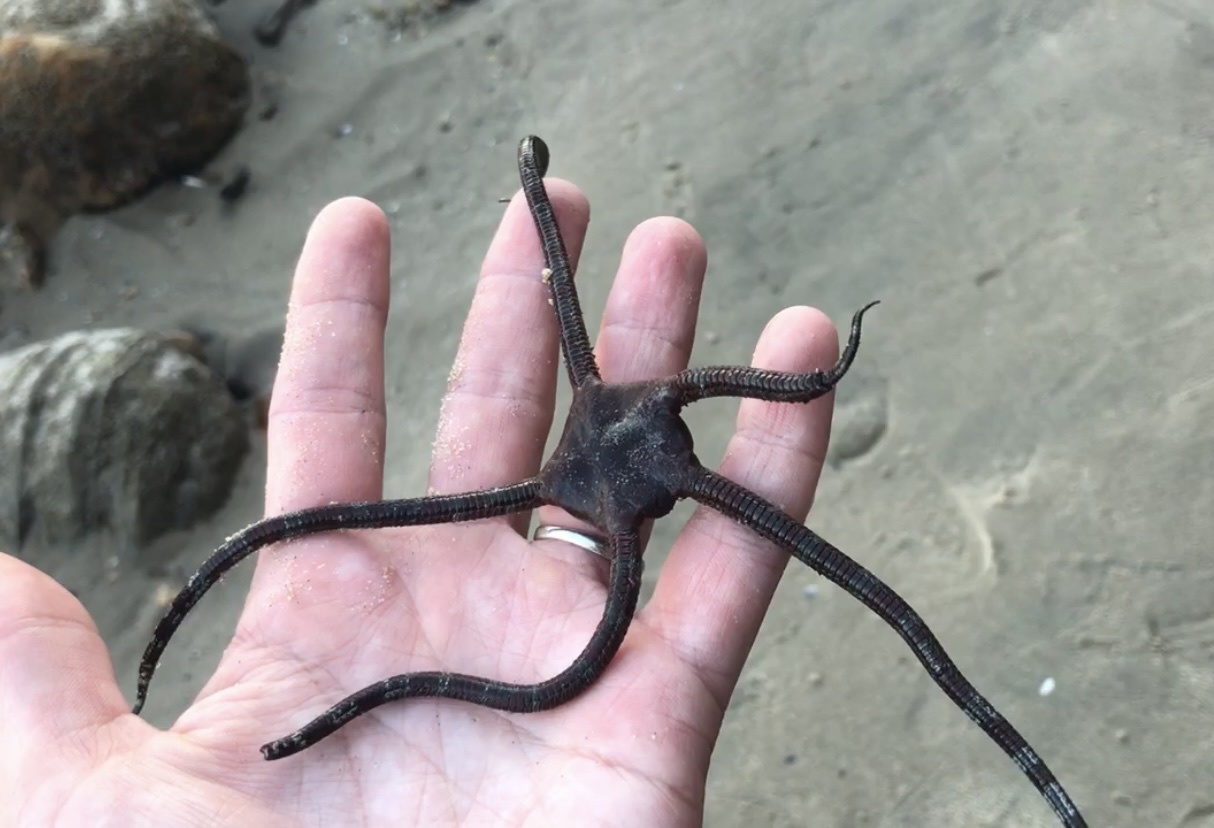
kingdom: Animalia
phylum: Echinodermata
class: Ophiuroidea
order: Ophiacanthida
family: Ophiodermatidae
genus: Ophioderma
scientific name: Ophioderma panamense
